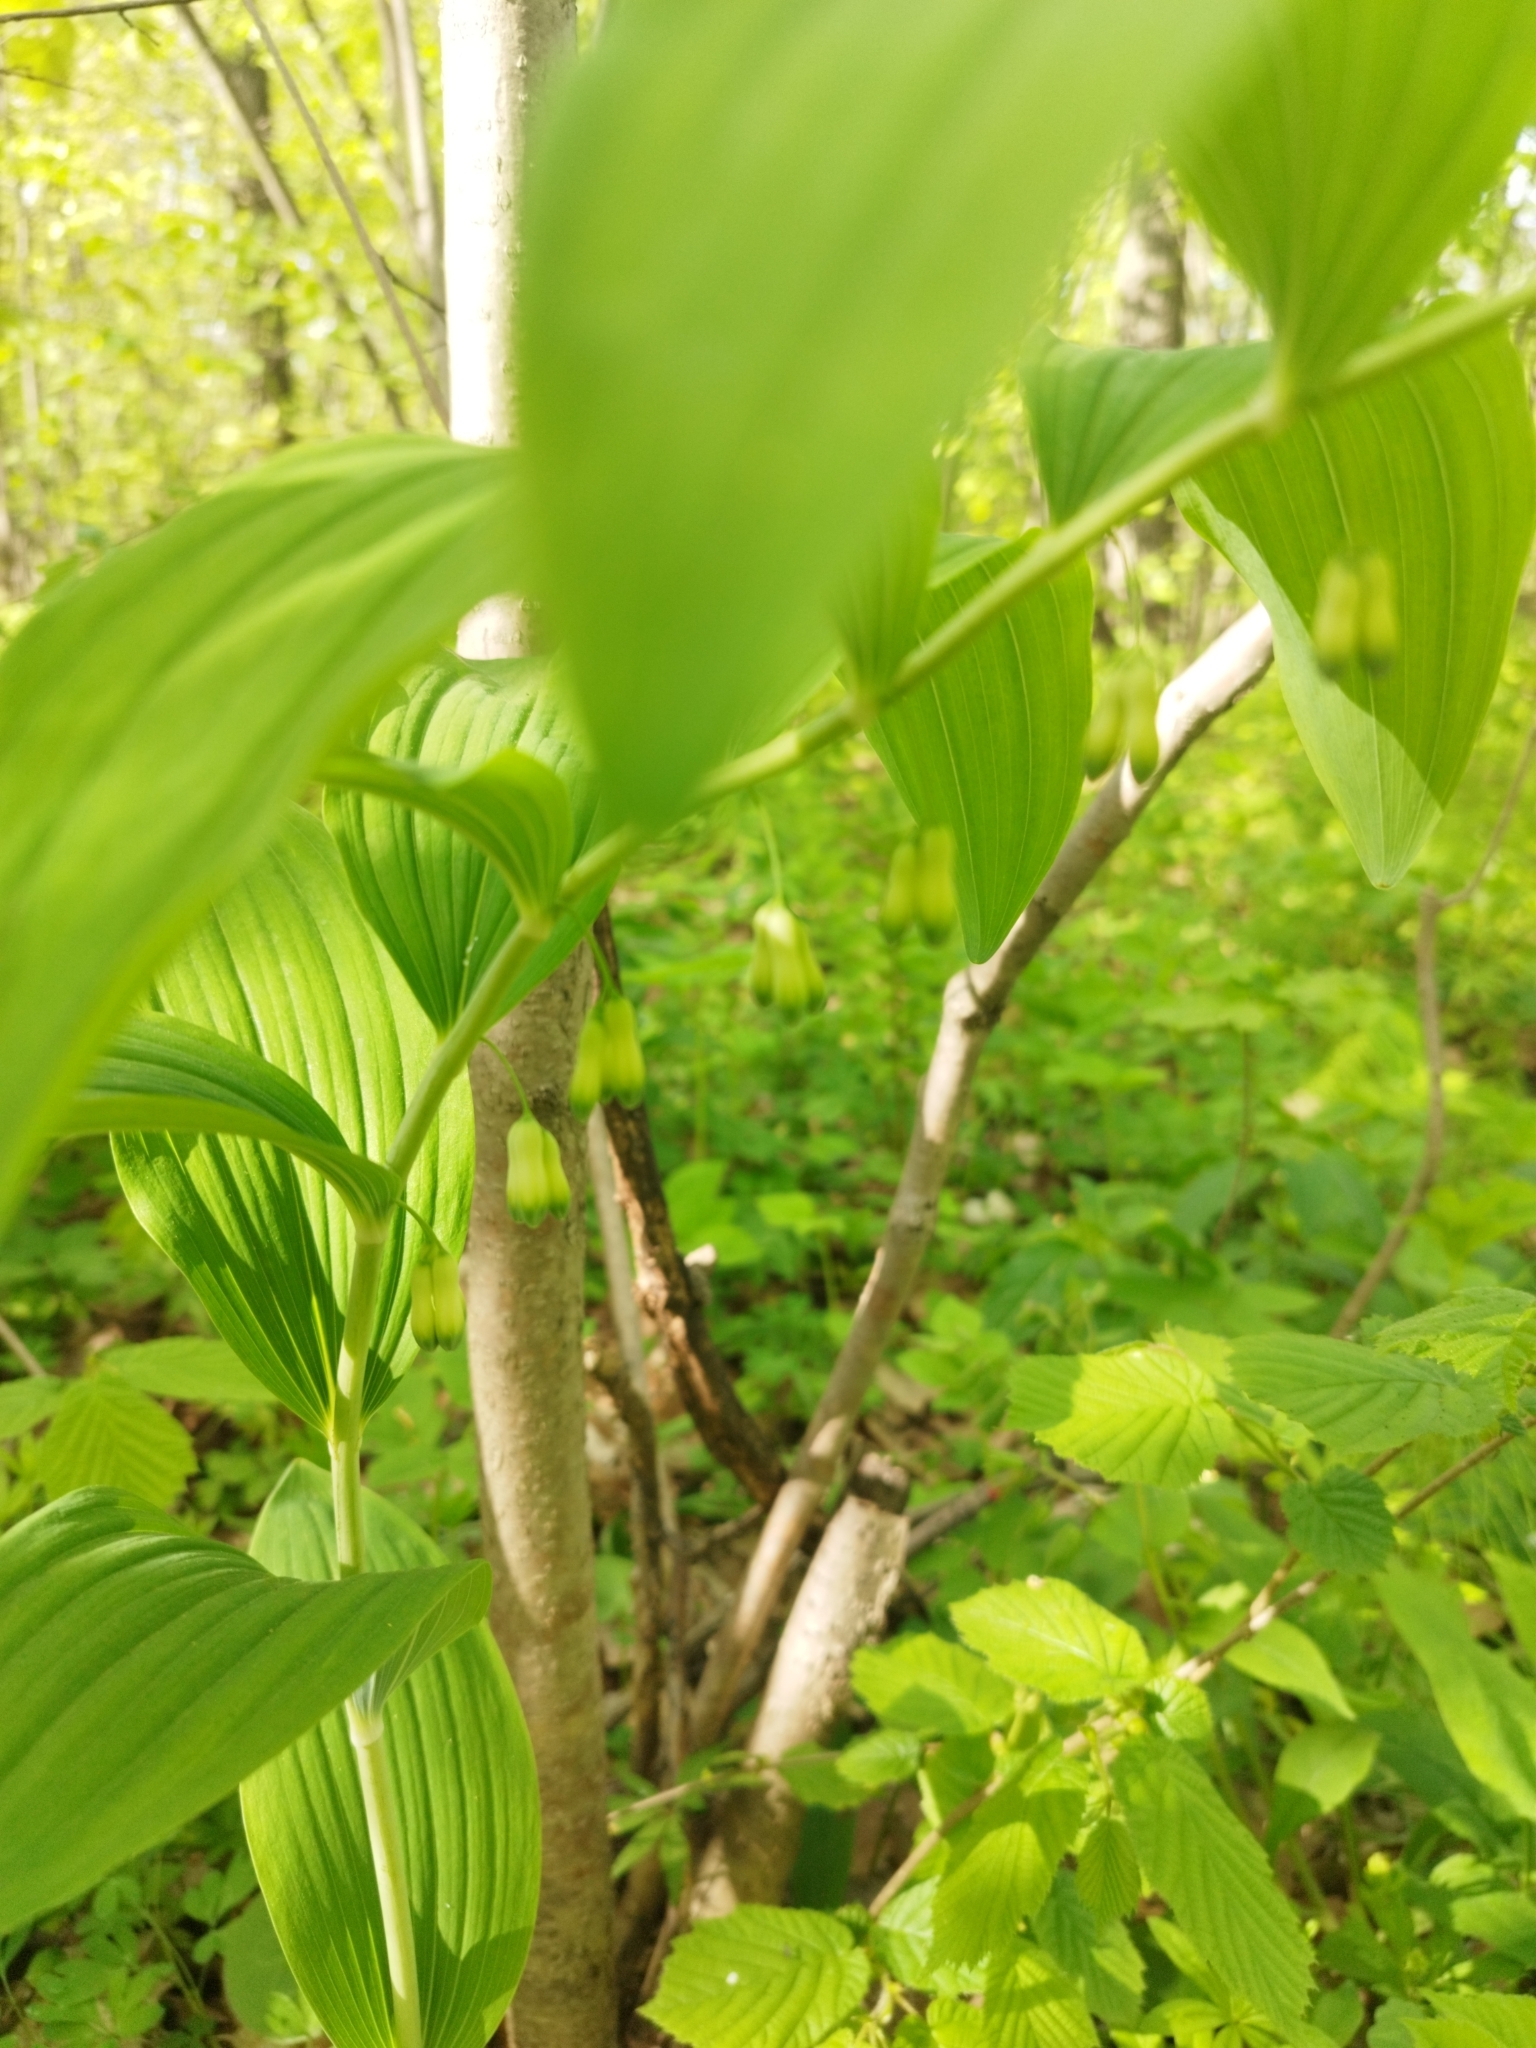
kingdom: Plantae
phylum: Tracheophyta
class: Liliopsida
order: Asparagales
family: Asparagaceae
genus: Polygonatum
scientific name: Polygonatum multiflorum
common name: Solomon's-seal
